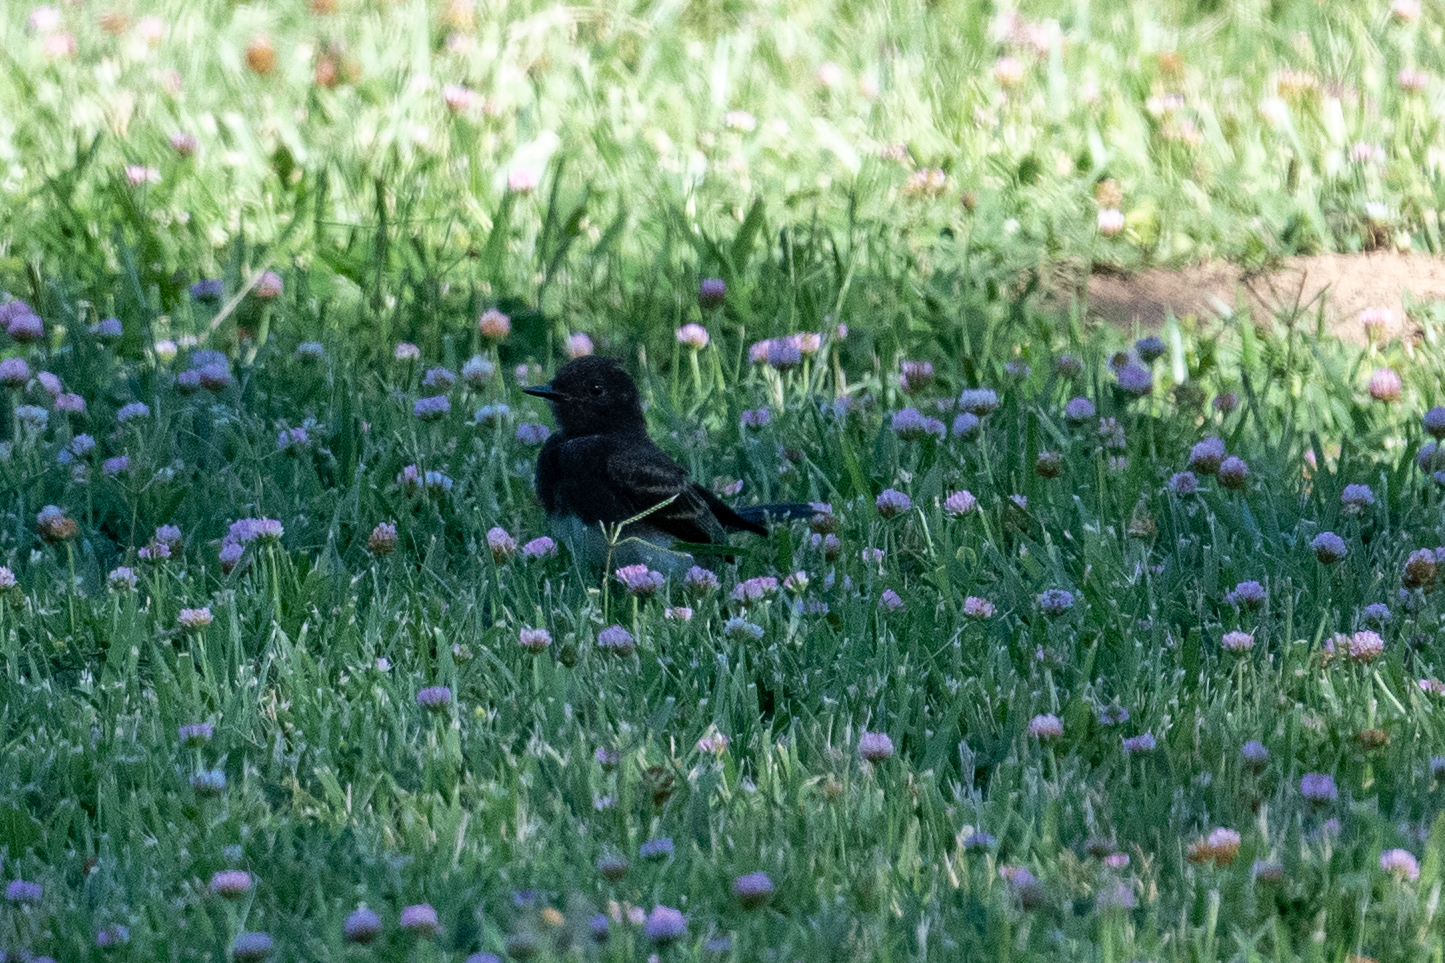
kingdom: Animalia
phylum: Chordata
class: Aves
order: Passeriformes
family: Tyrannidae
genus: Sayornis
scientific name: Sayornis nigricans
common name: Black phoebe
